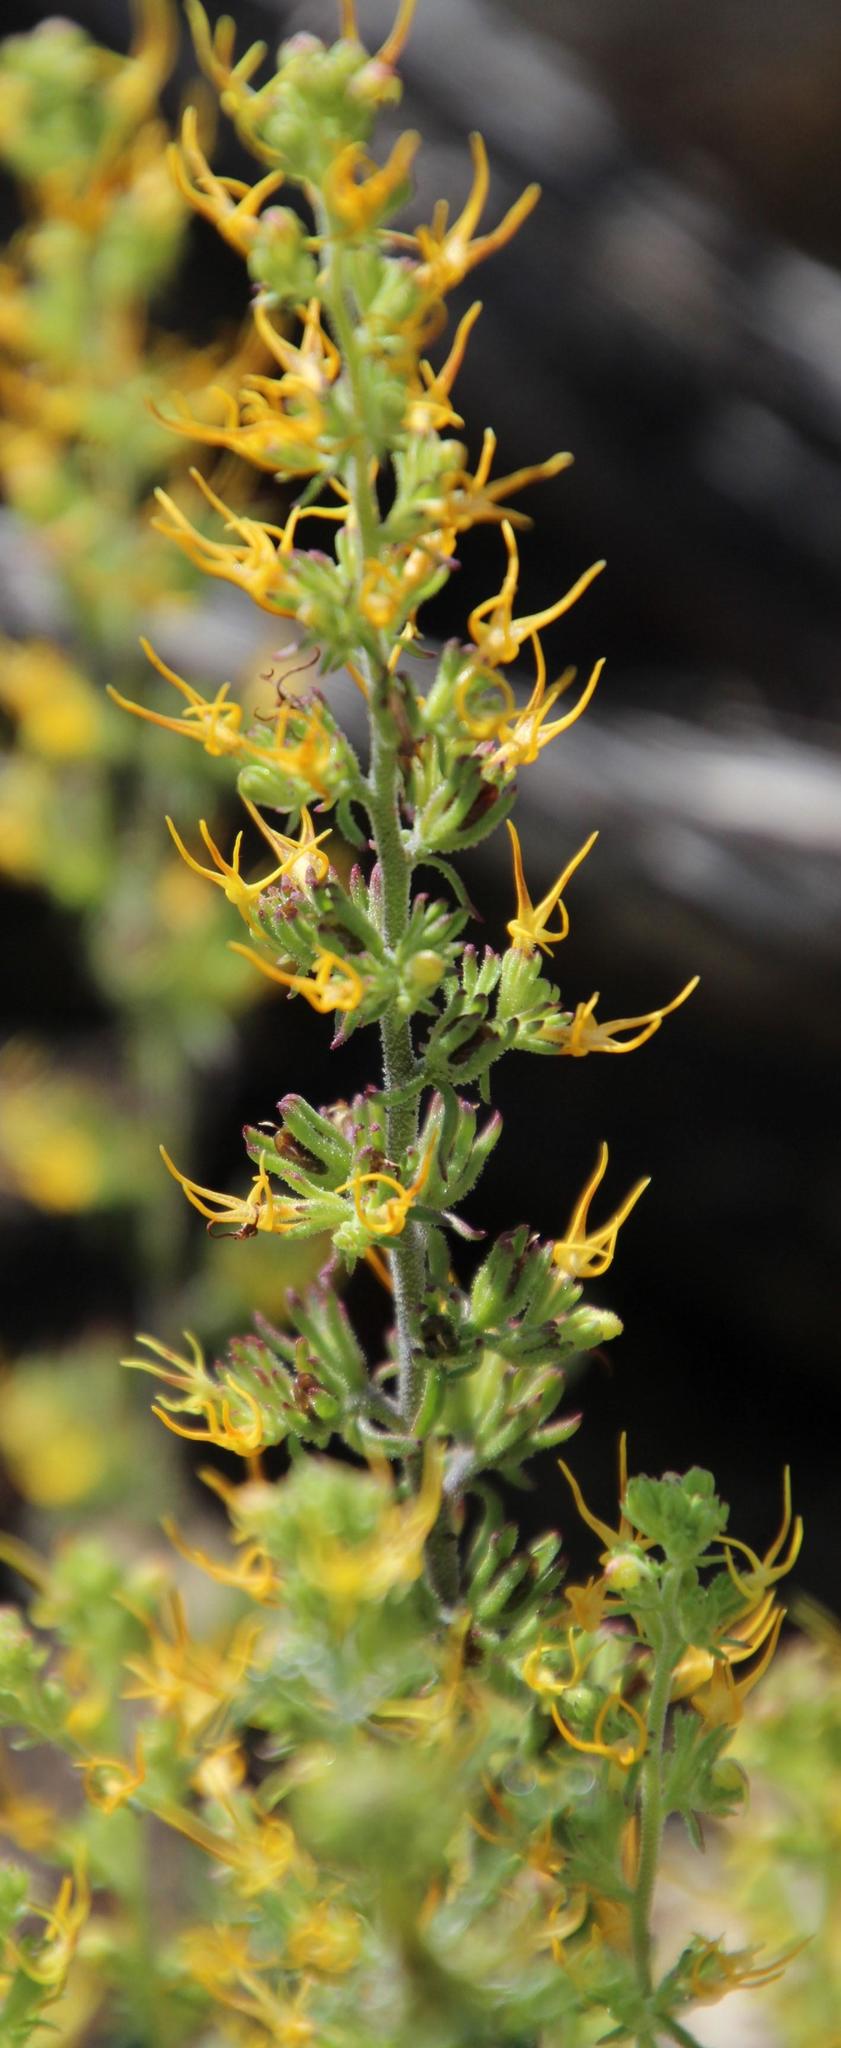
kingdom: Plantae
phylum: Tracheophyta
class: Magnoliopsida
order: Lamiales
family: Scrophulariaceae
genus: Manulea
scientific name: Manulea cheiranthus
